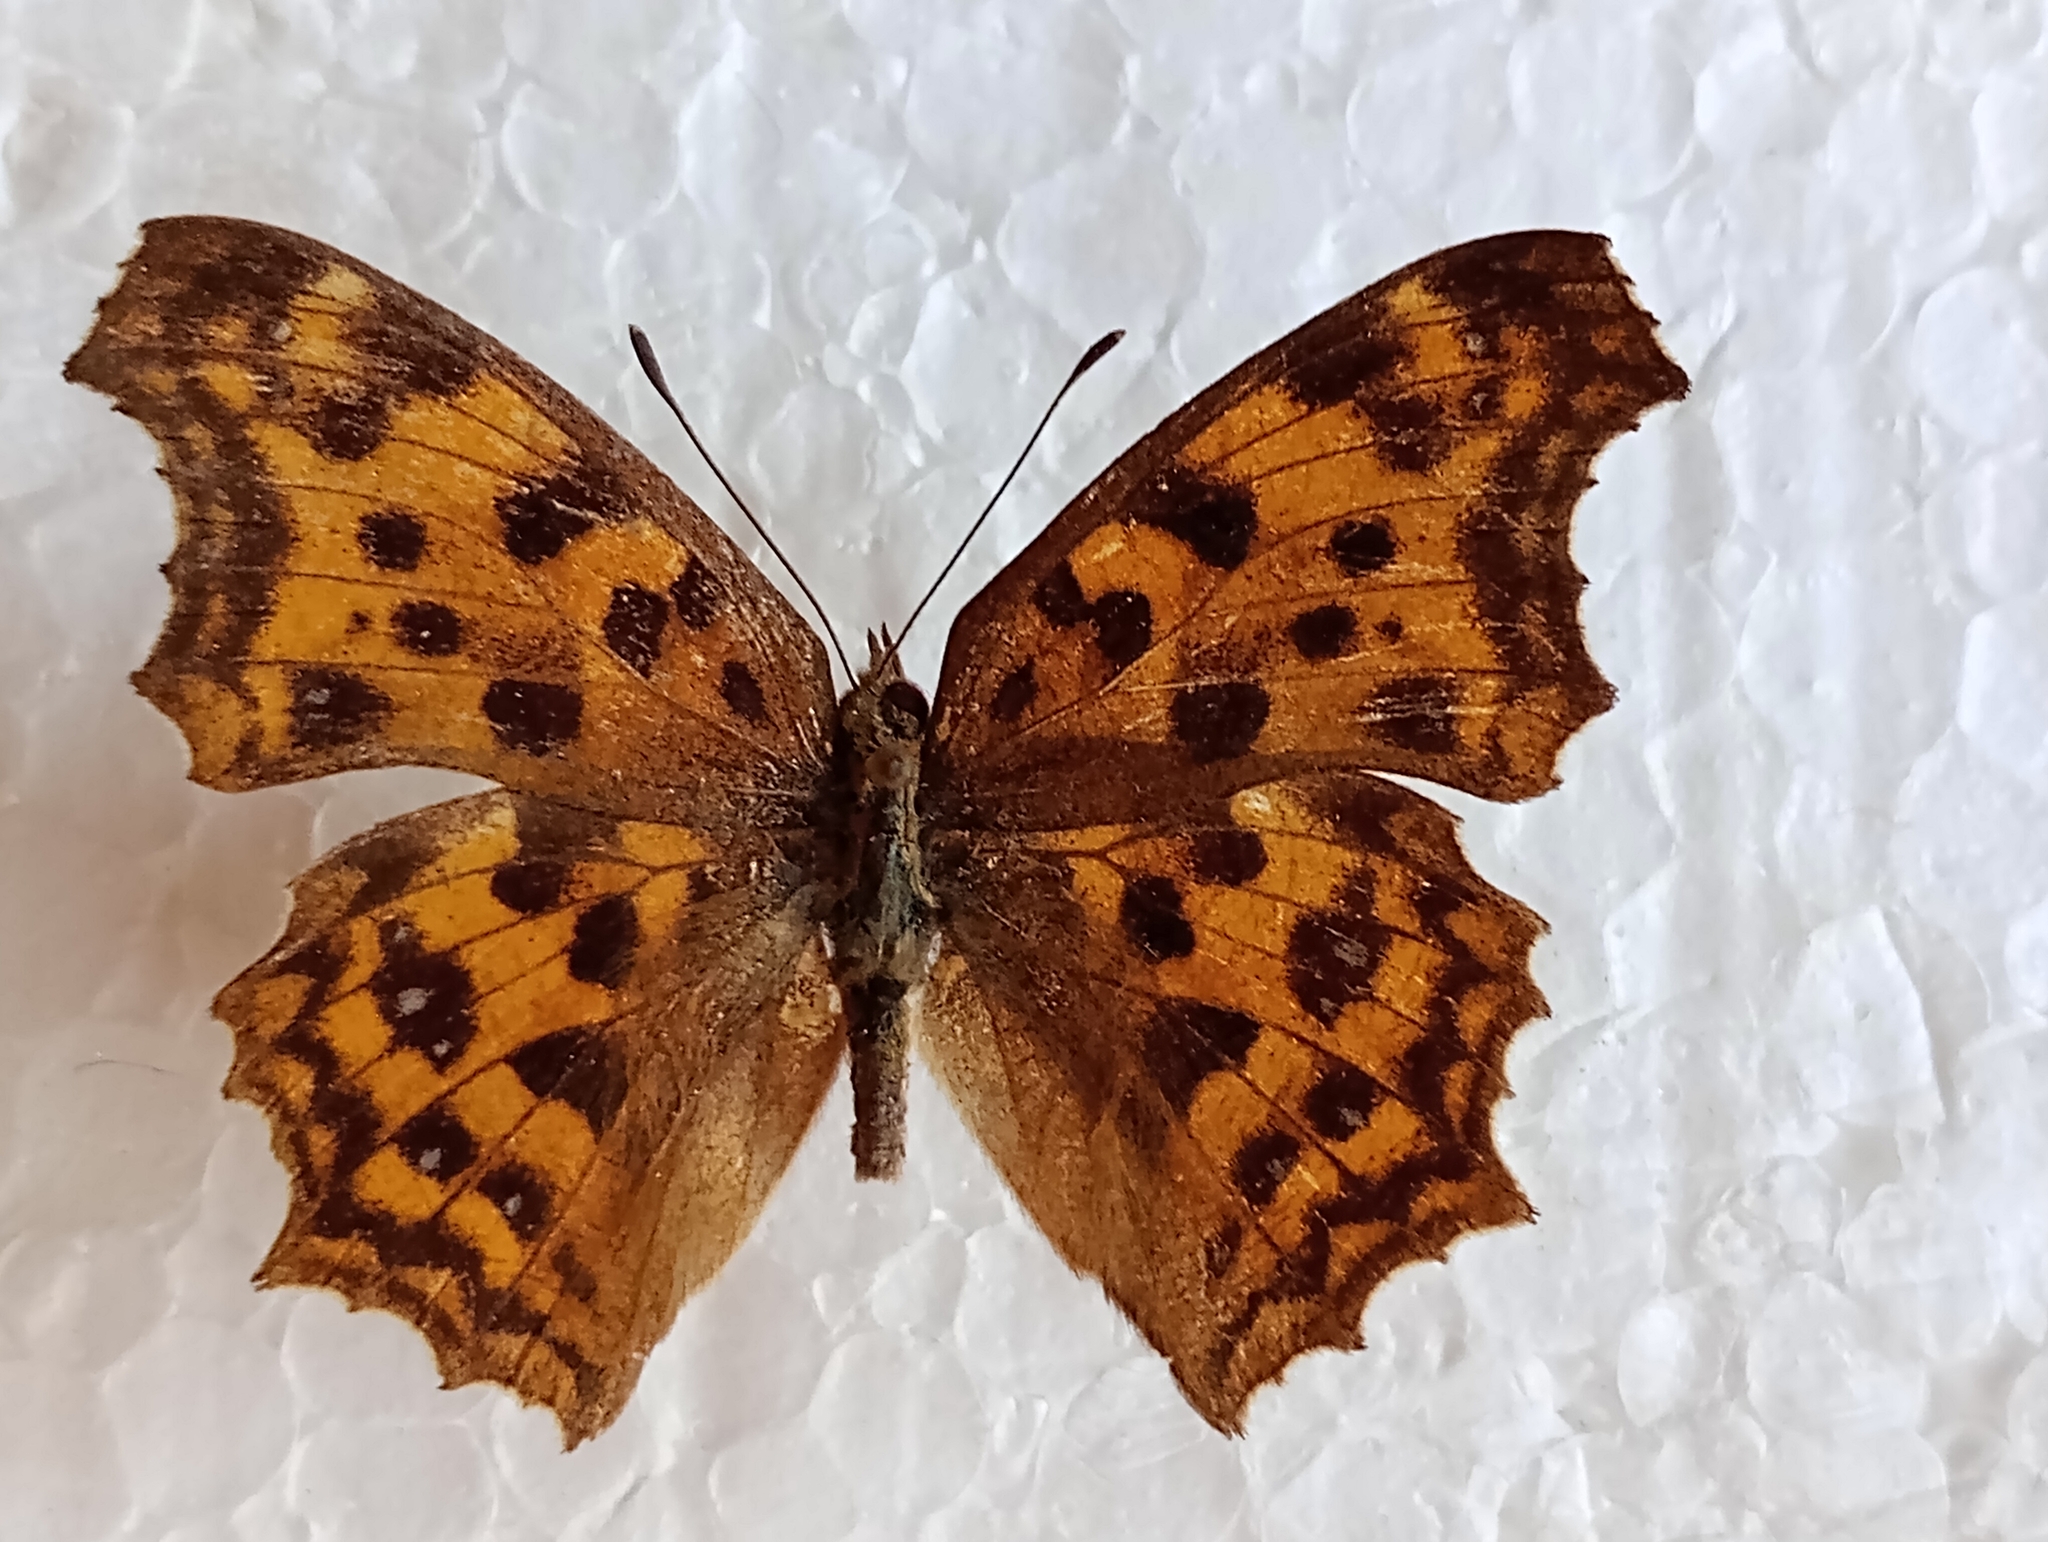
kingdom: Animalia
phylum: Arthropoda
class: Insecta
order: Lepidoptera
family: Nymphalidae
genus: Polygonia
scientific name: Polygonia c-aureum
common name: Asian comma
